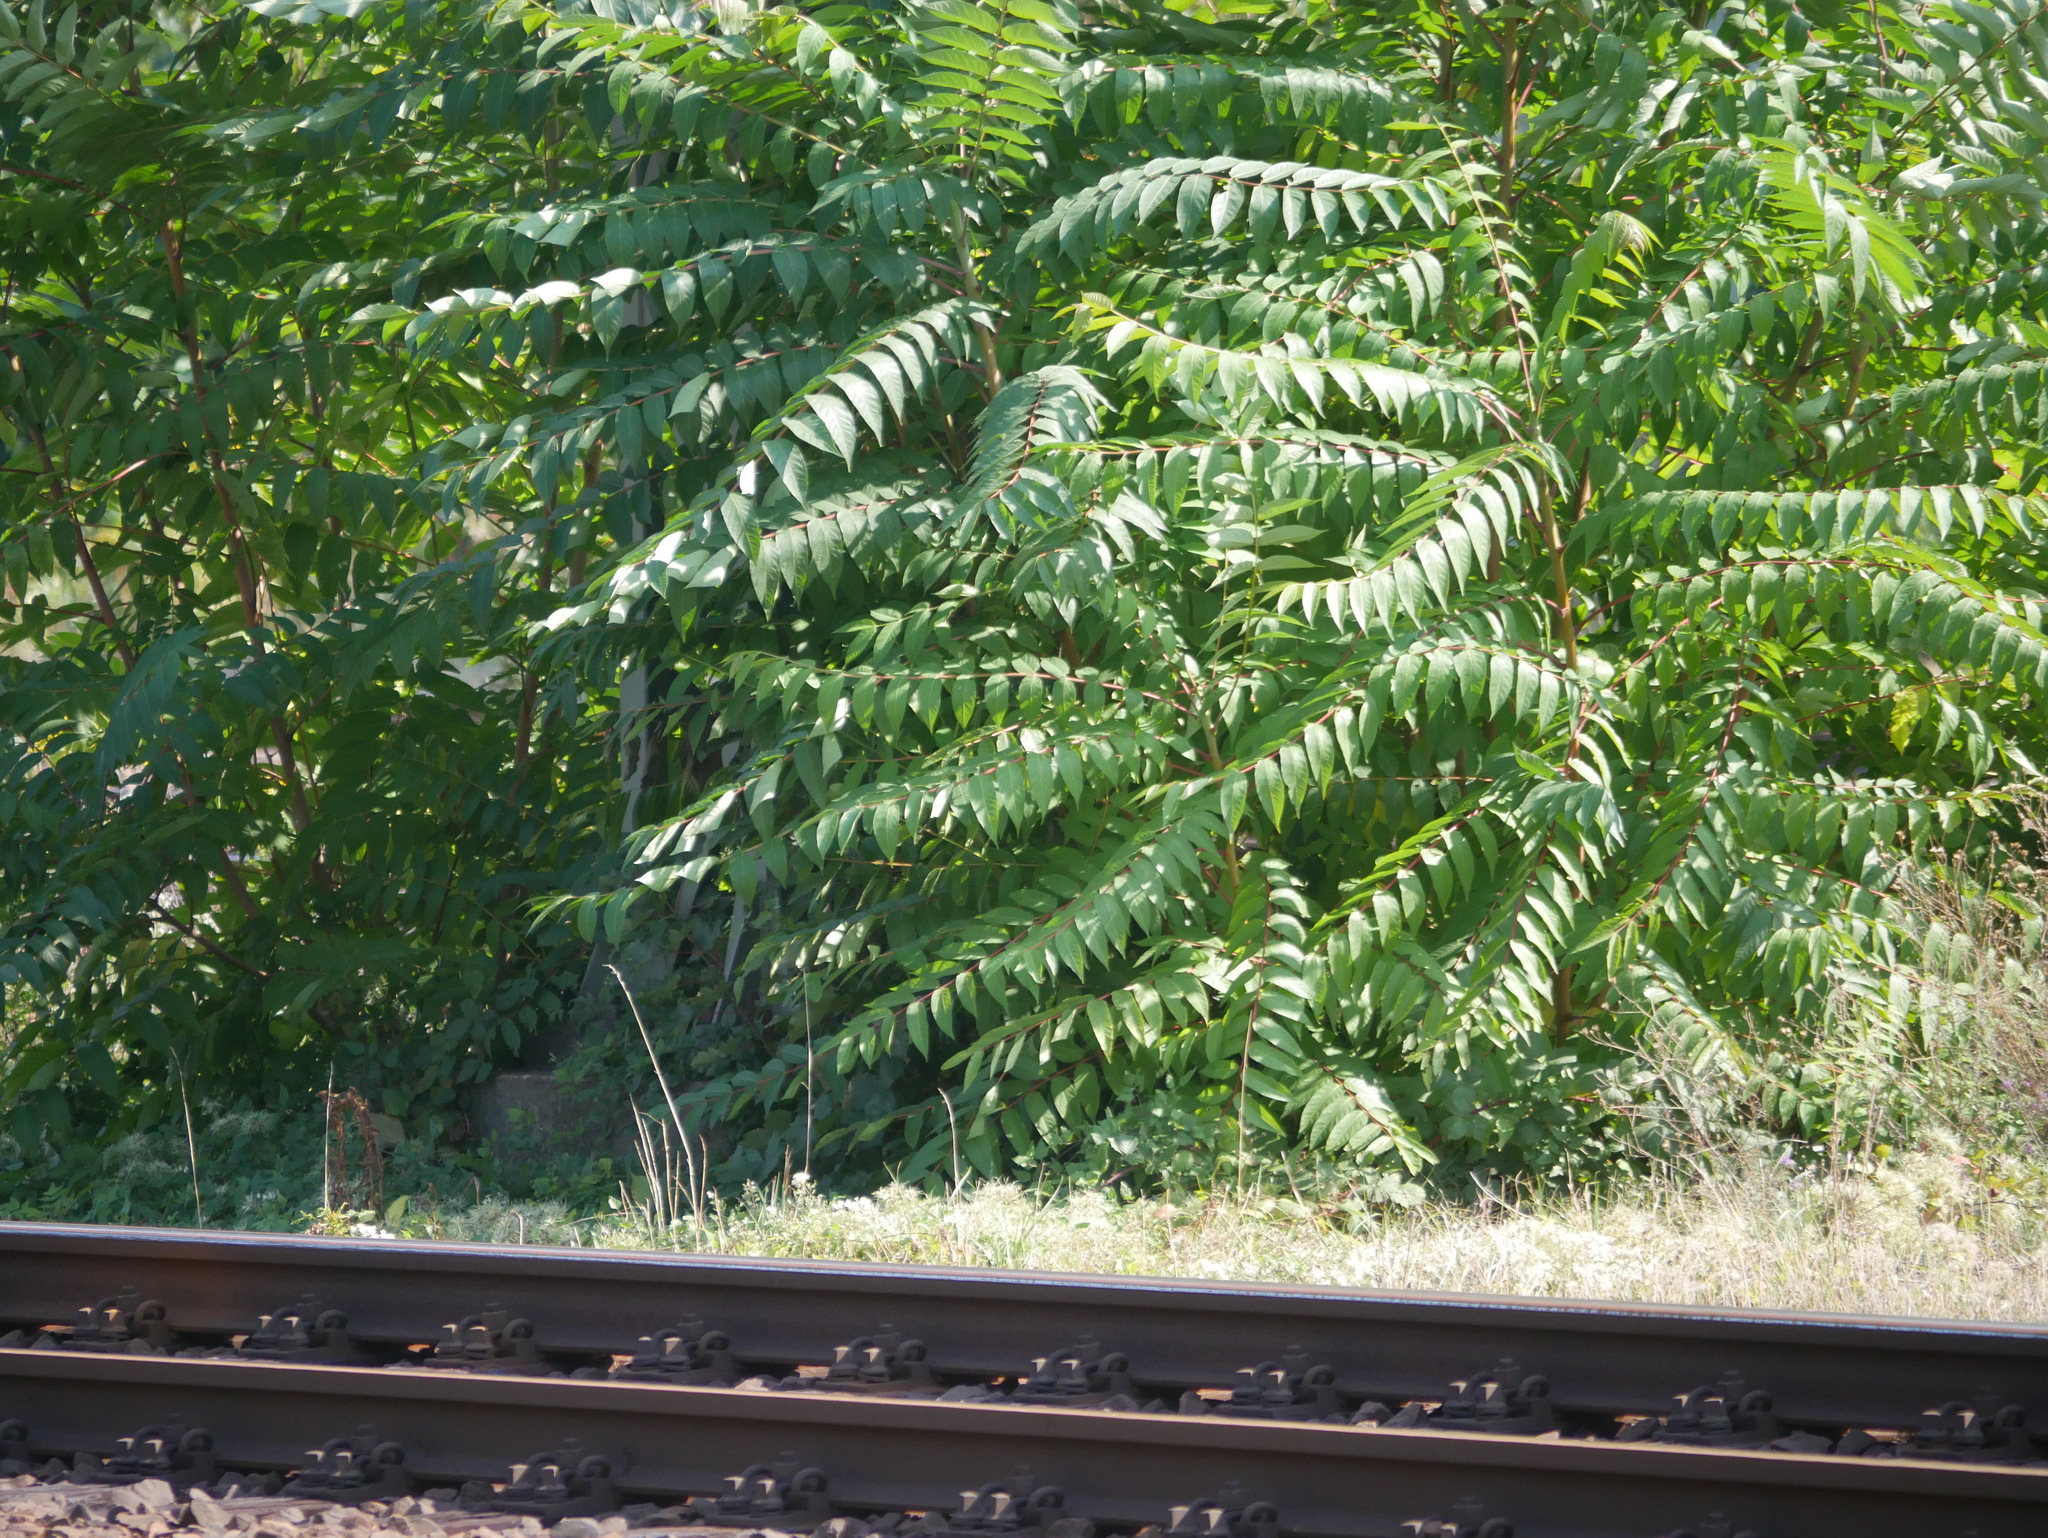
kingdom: Plantae
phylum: Tracheophyta
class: Magnoliopsida
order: Sapindales
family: Simaroubaceae
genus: Ailanthus
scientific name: Ailanthus altissima
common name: Tree-of-heaven
